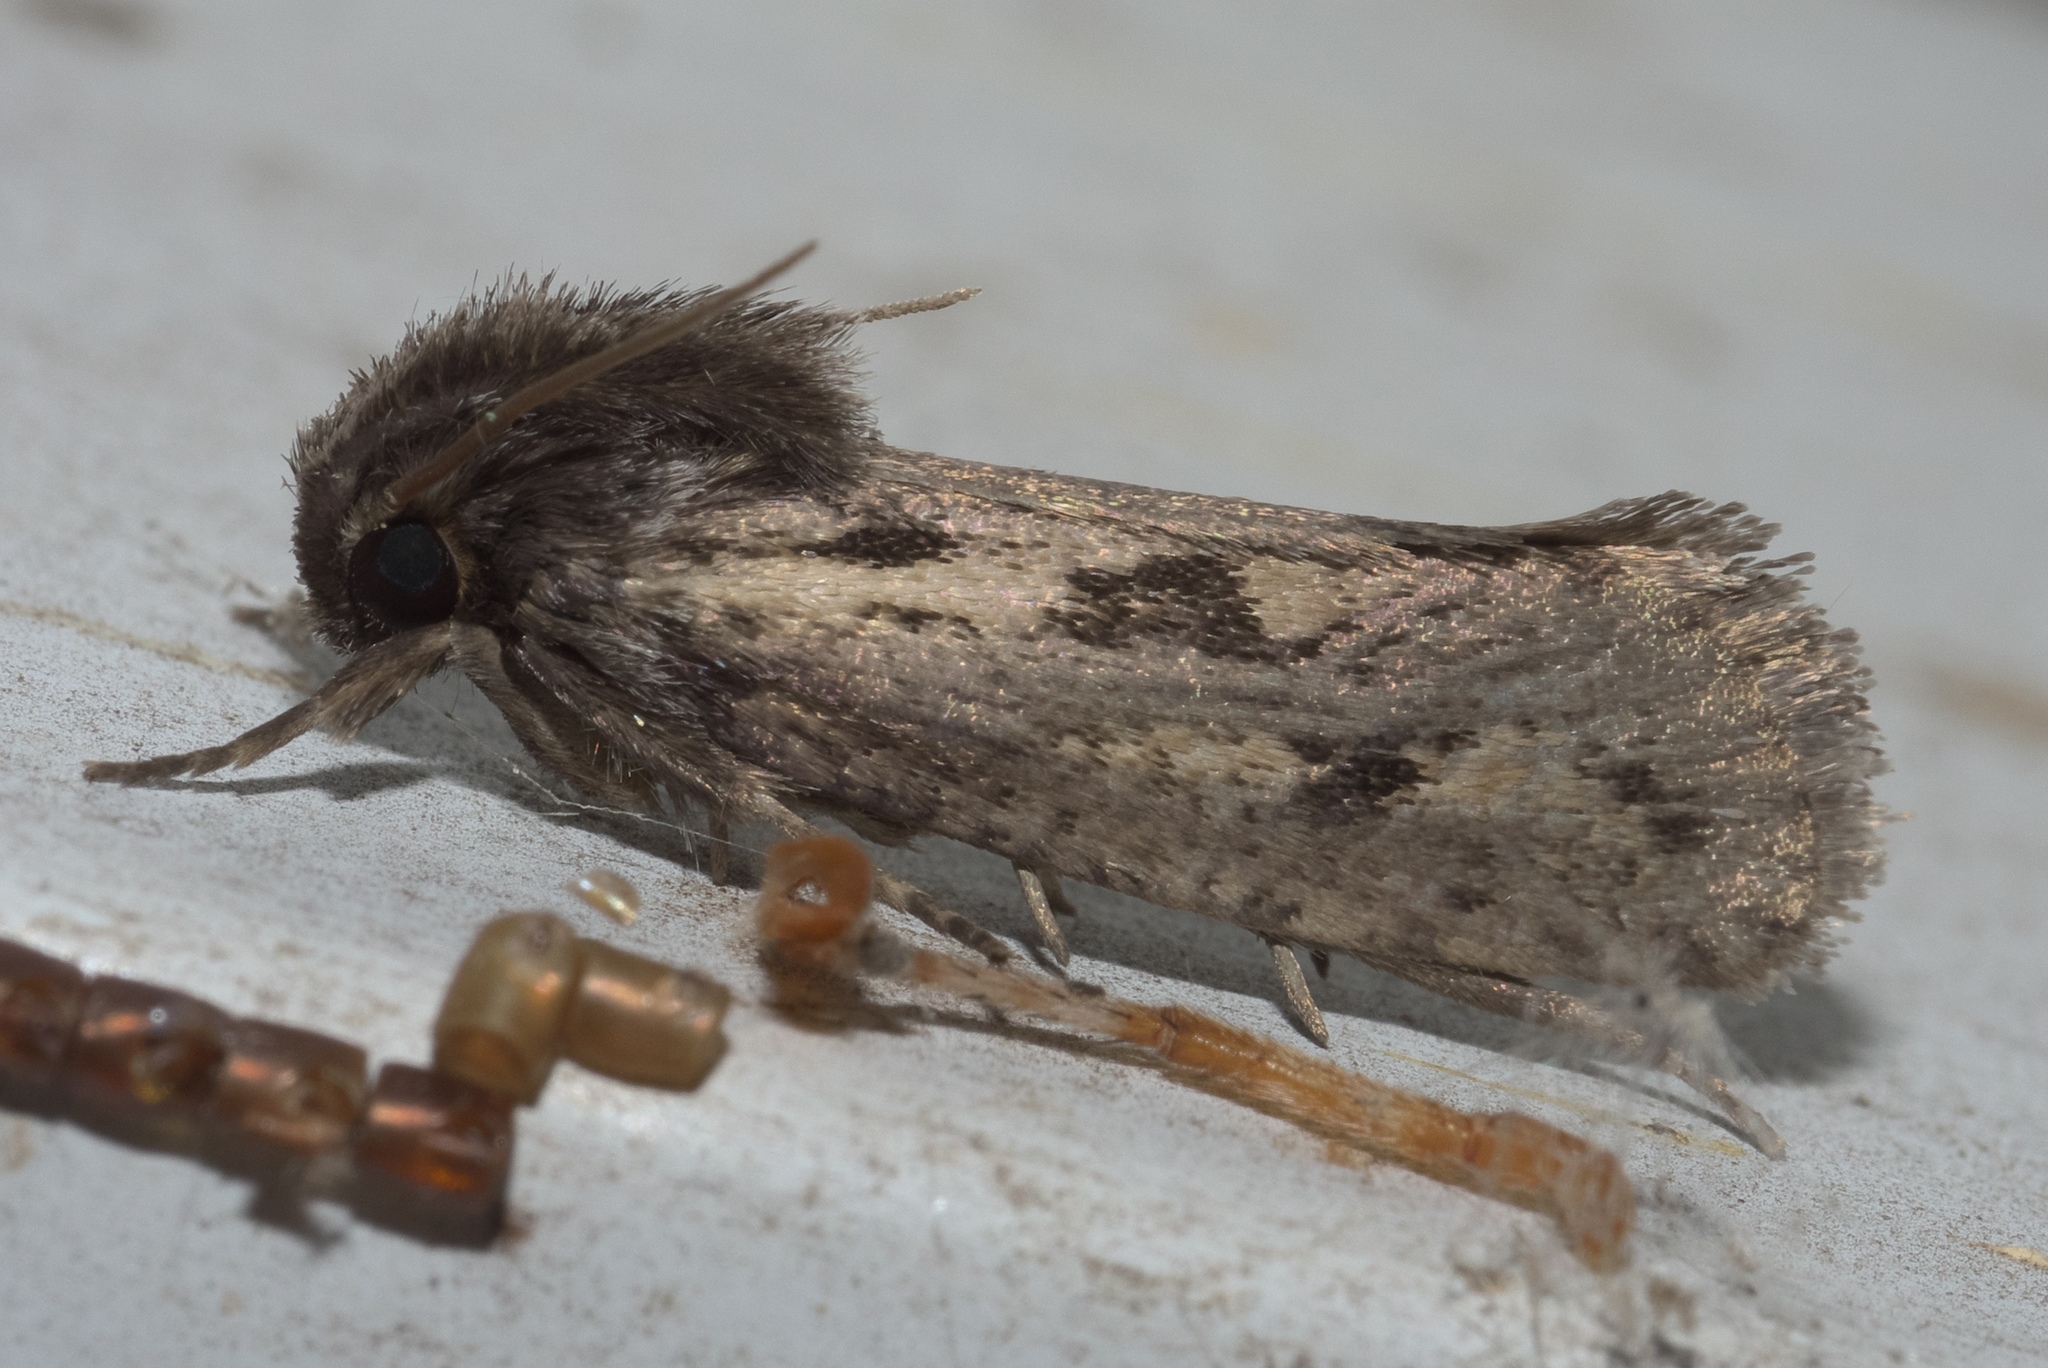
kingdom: Animalia
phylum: Arthropoda
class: Insecta
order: Lepidoptera
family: Tineidae
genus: Acrolophus
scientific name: Acrolophus popeanella
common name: Clemens' grass tubeworm moth
